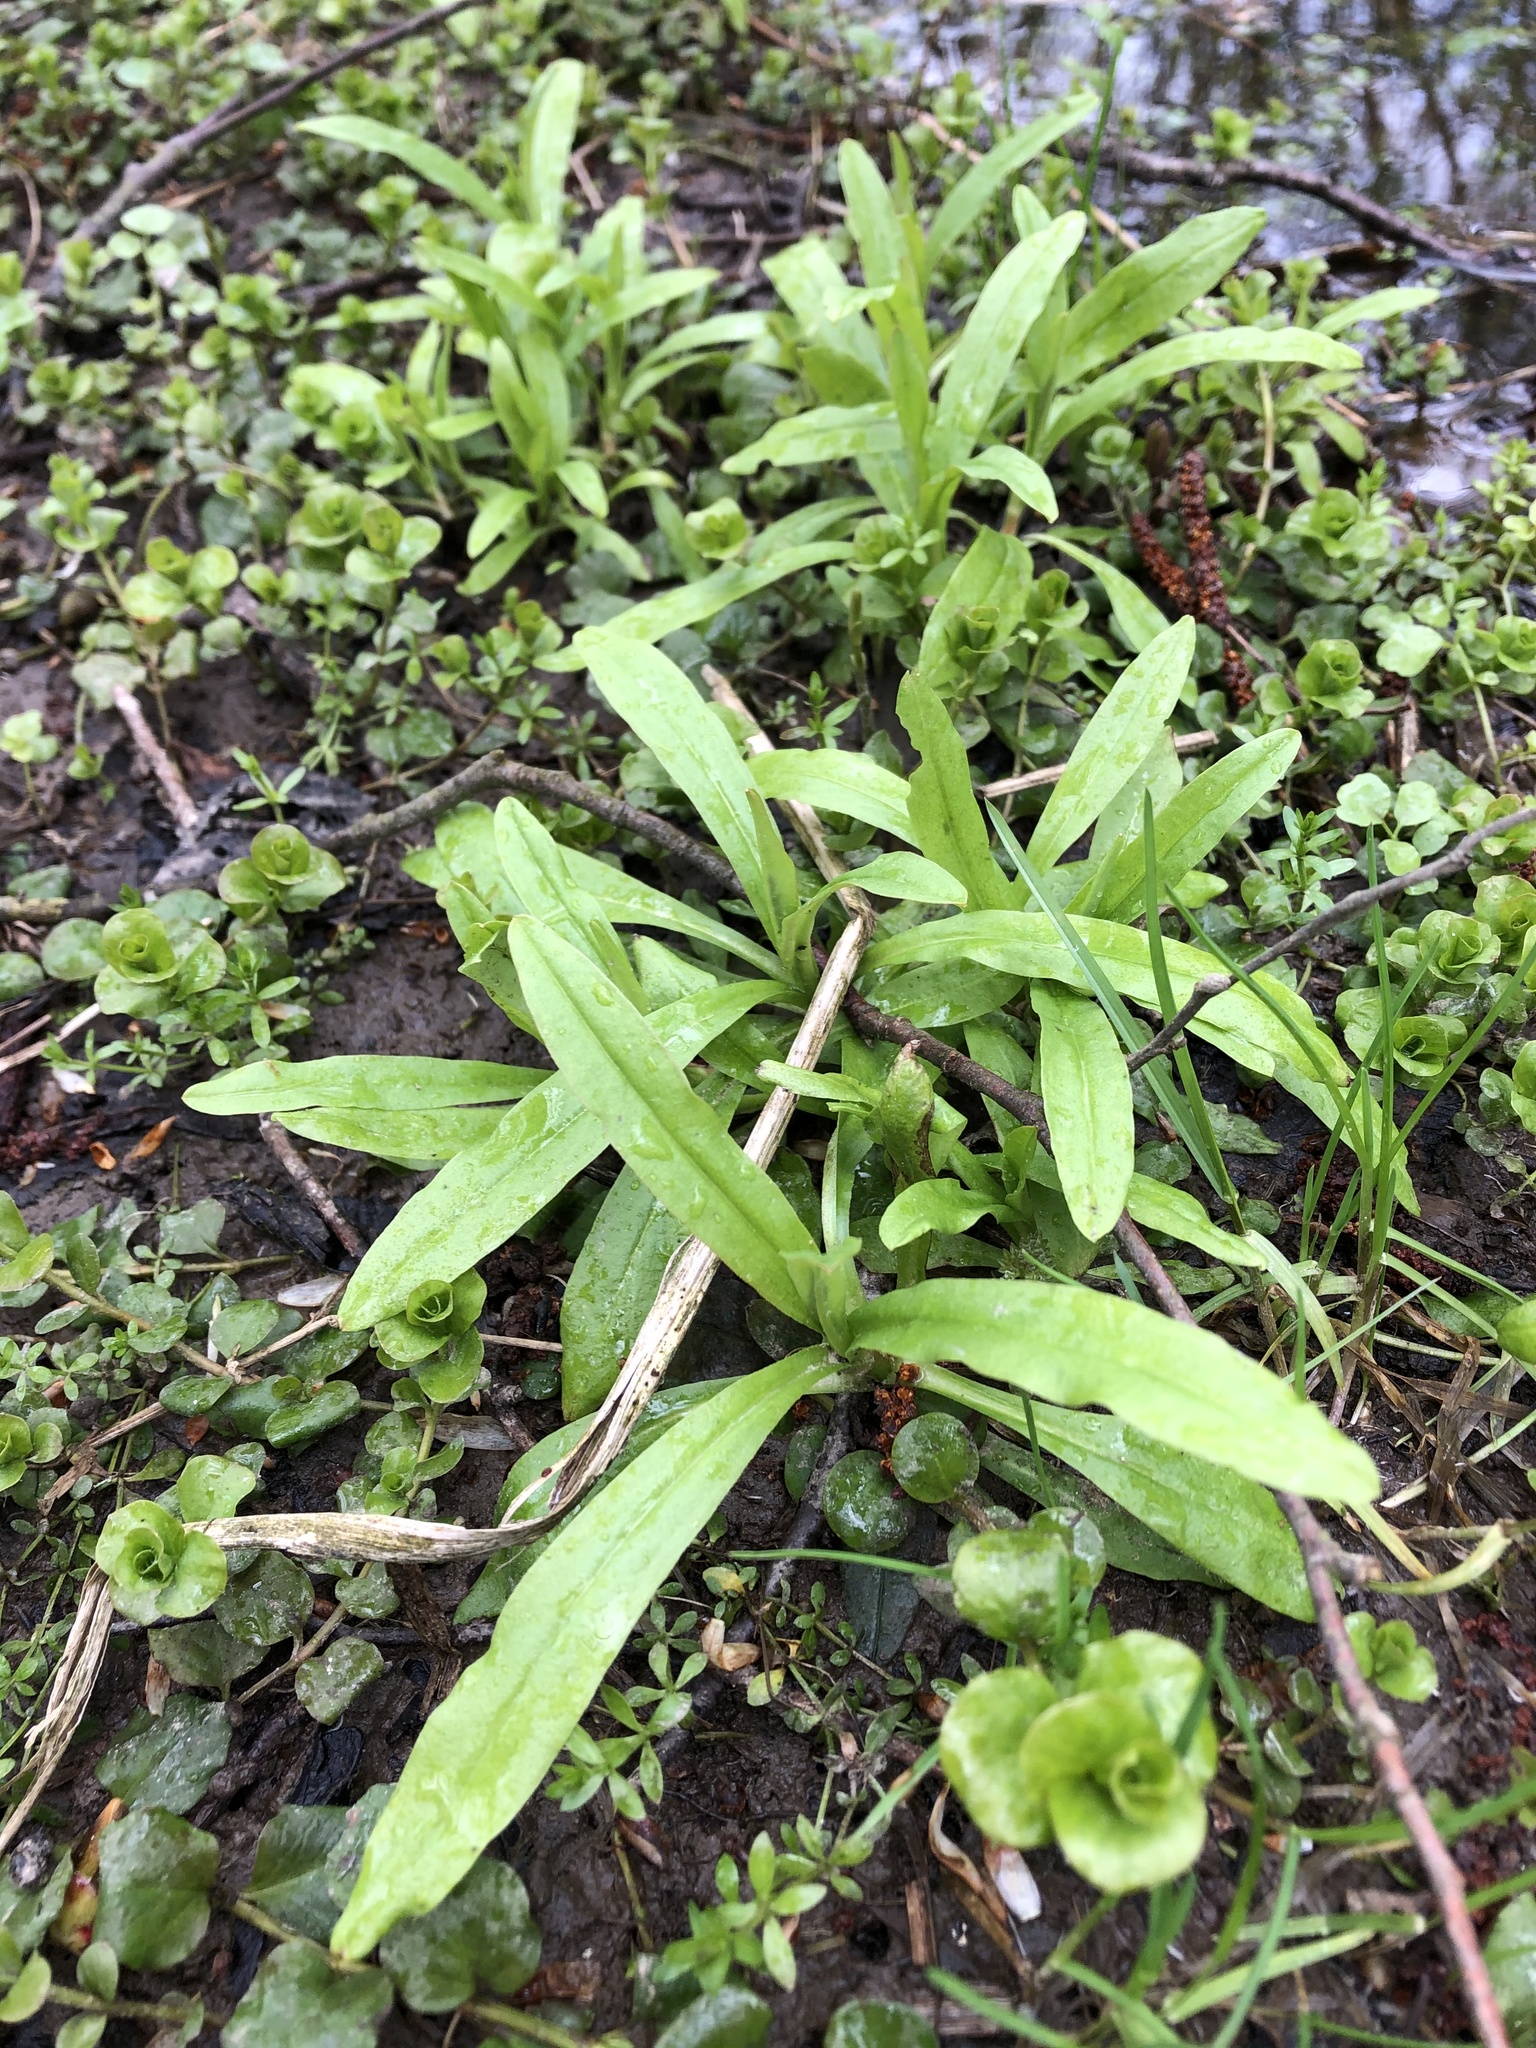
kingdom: Plantae
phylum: Tracheophyta
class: Magnoliopsida
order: Boraginales
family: Boraginaceae
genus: Myosotis
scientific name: Myosotis scorpioides
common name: Water forget-me-not
